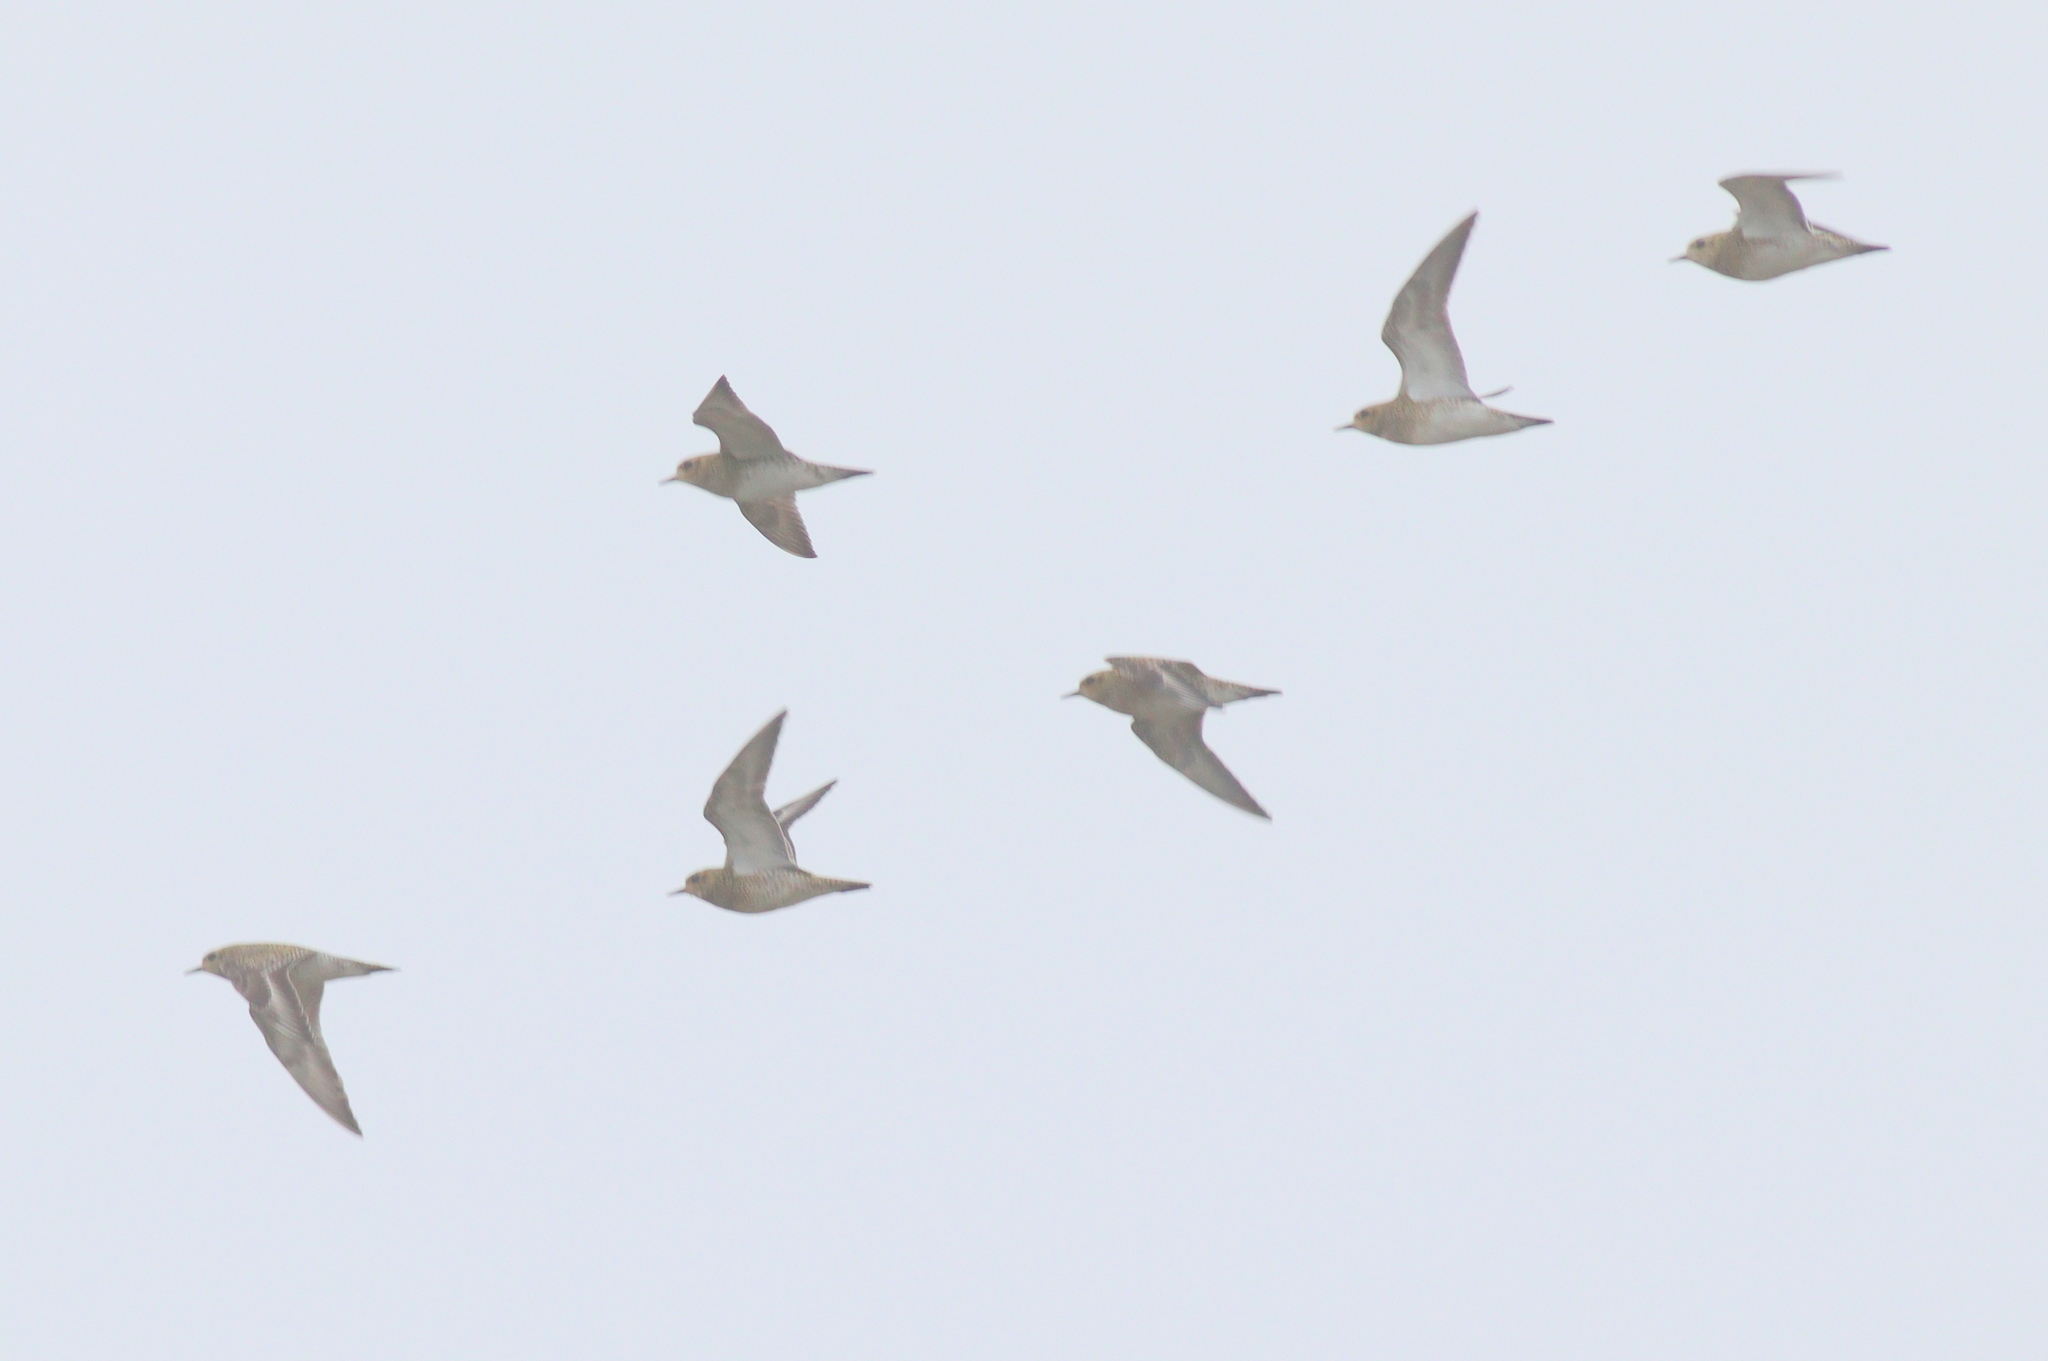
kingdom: Animalia
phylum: Chordata
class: Aves
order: Charadriiformes
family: Charadriidae
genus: Pluvialis
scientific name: Pluvialis apricaria
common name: European golden plover
